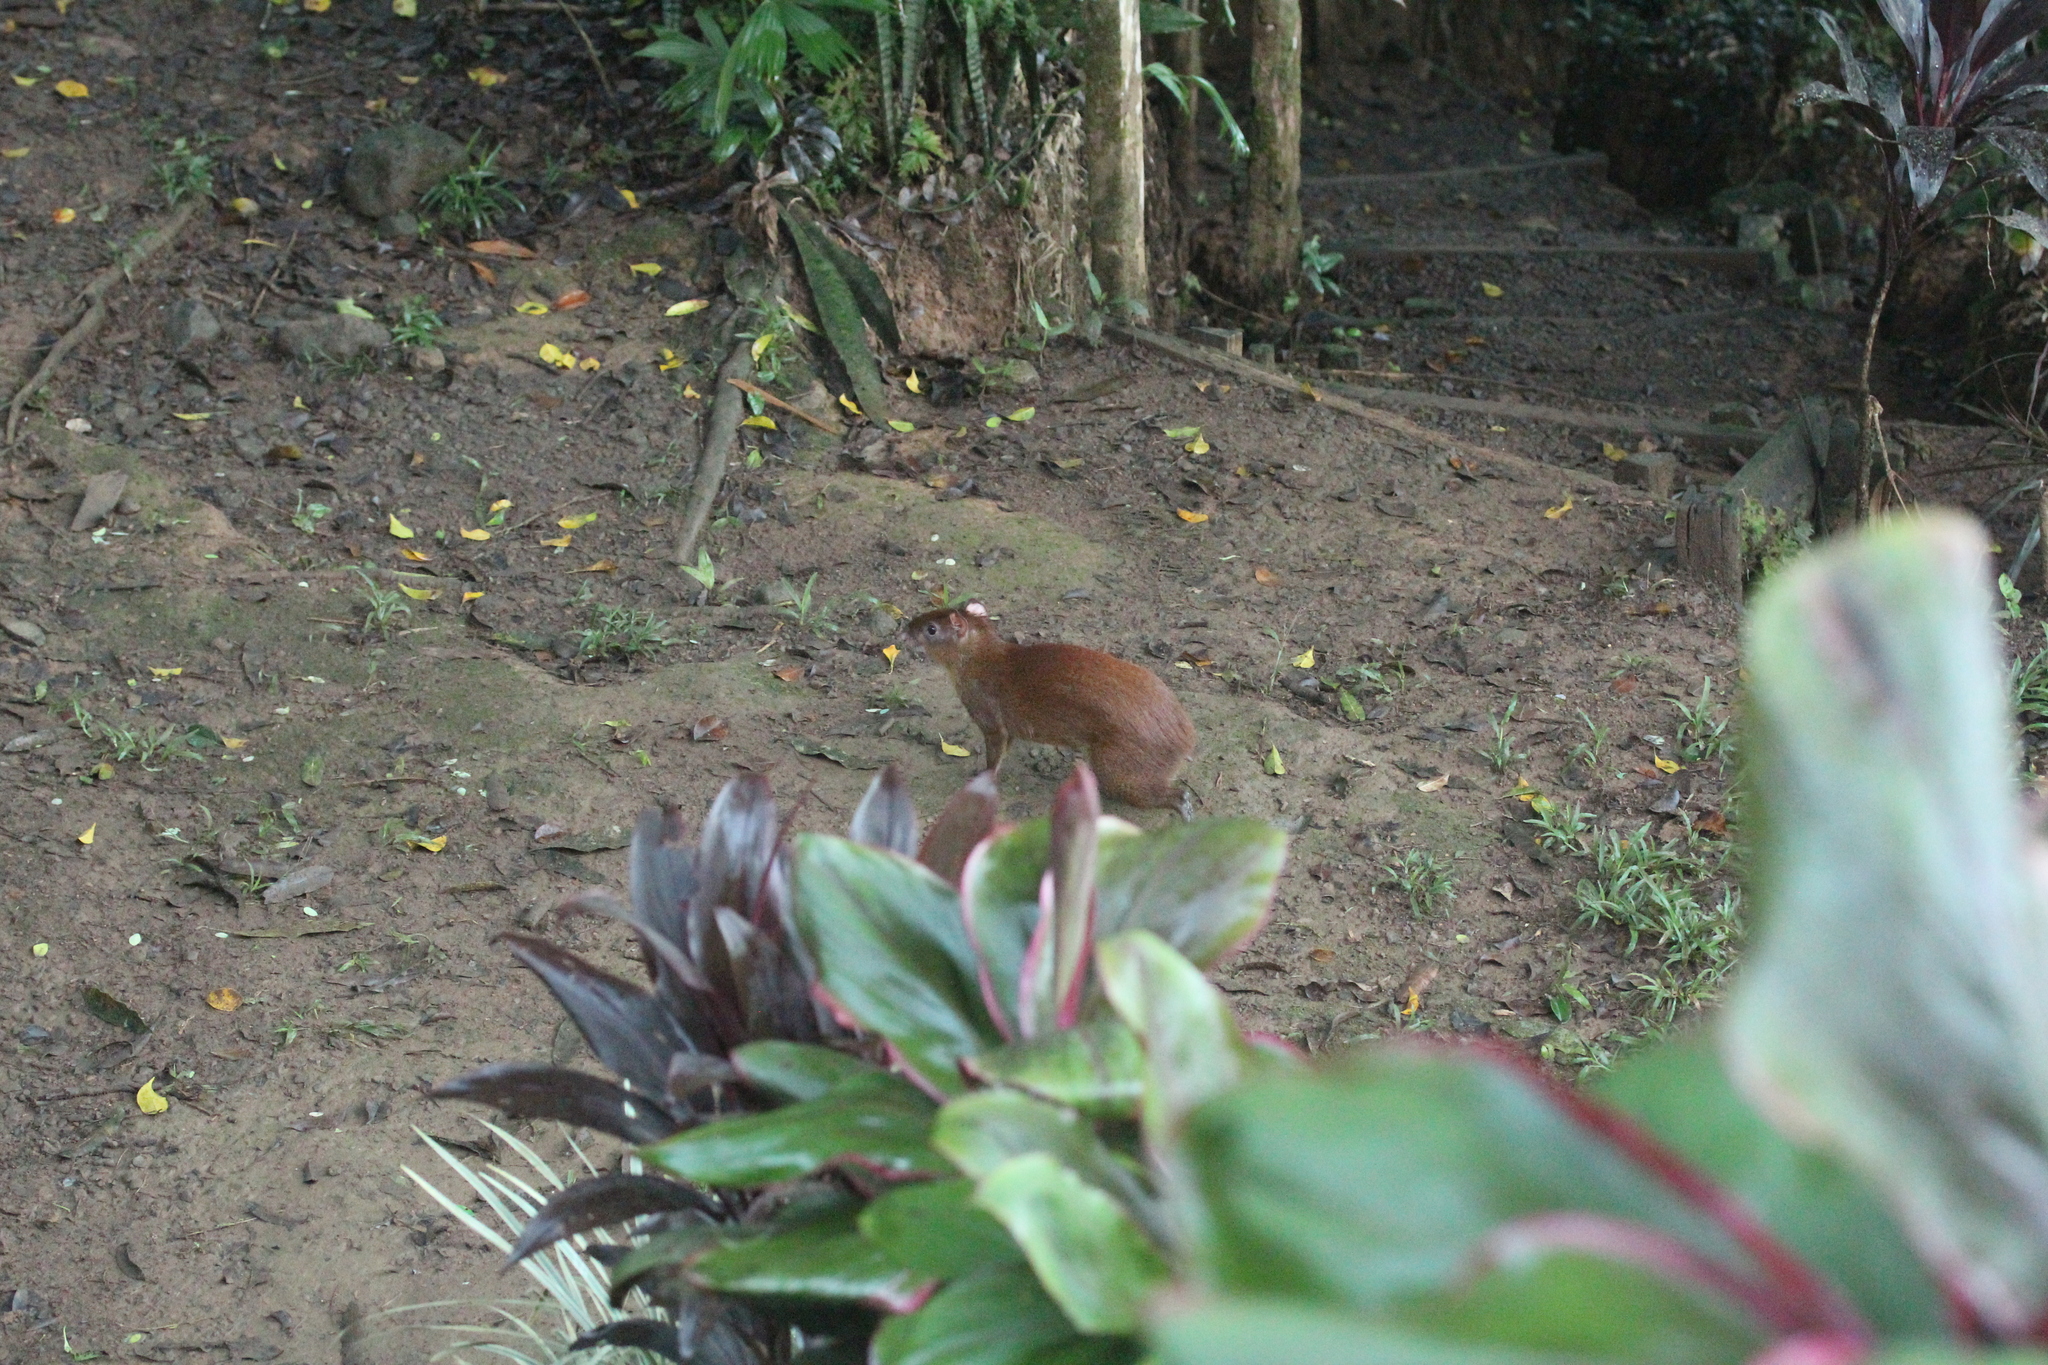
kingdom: Animalia
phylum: Chordata
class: Mammalia
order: Rodentia
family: Dasyproctidae
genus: Dasyprocta
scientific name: Dasyprocta punctata
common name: Central american agouti
